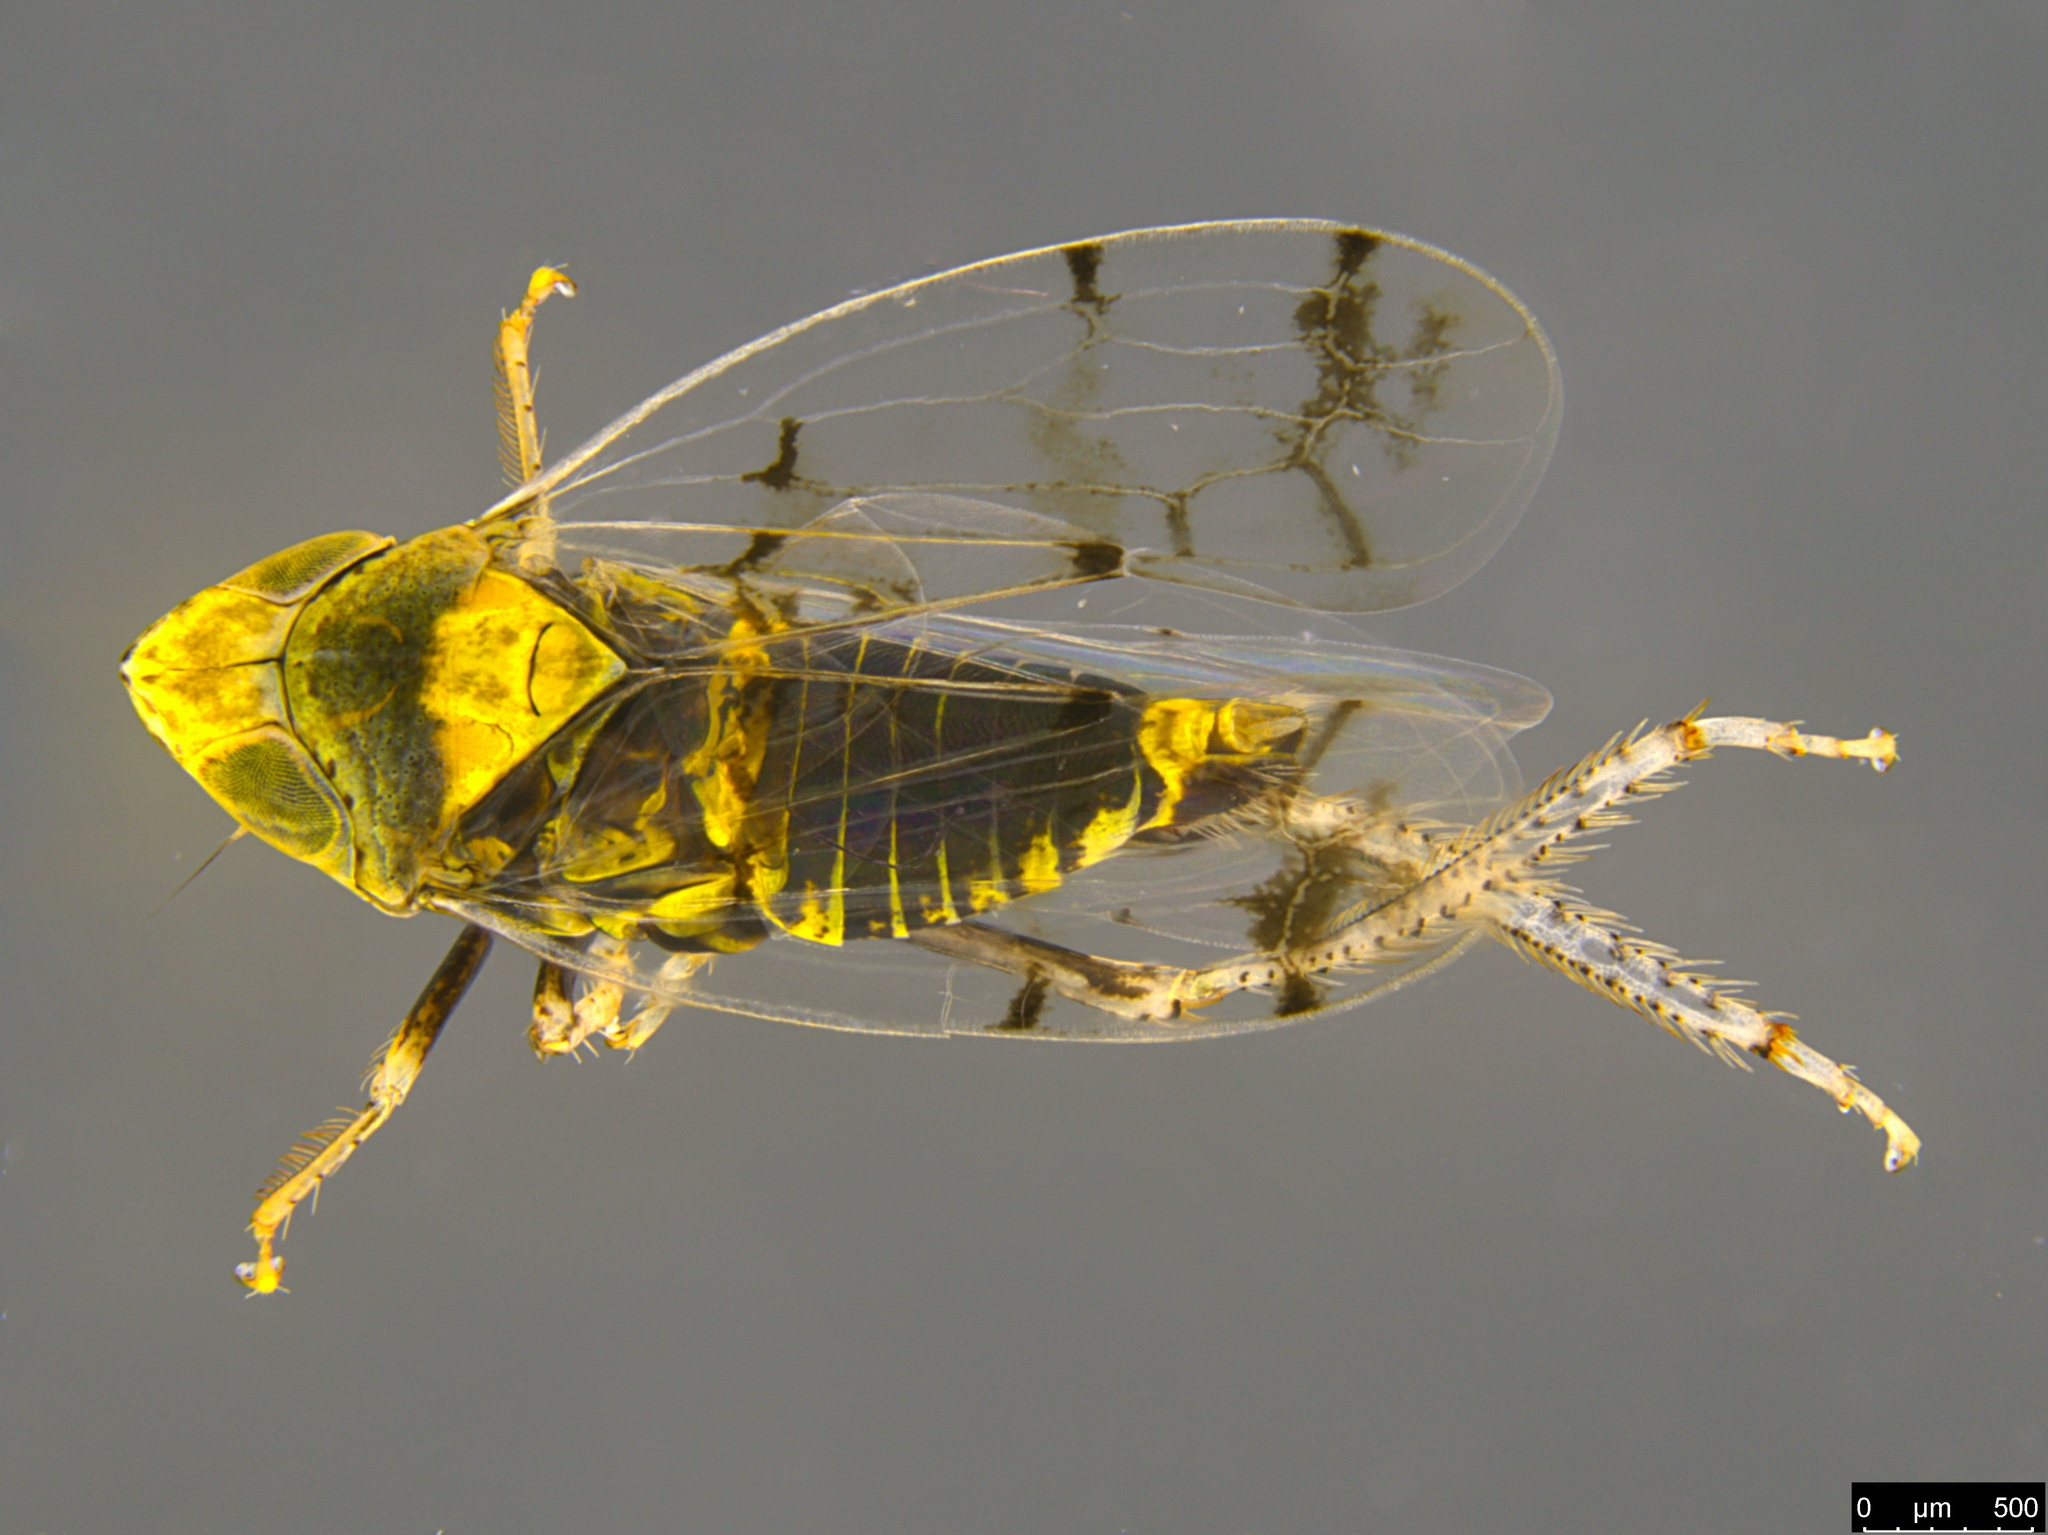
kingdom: Animalia
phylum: Arthropoda
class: Insecta
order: Hemiptera
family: Cicadellidae
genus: Japananus
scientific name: Japananus hyalinus
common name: The japanese maple leafhopper
